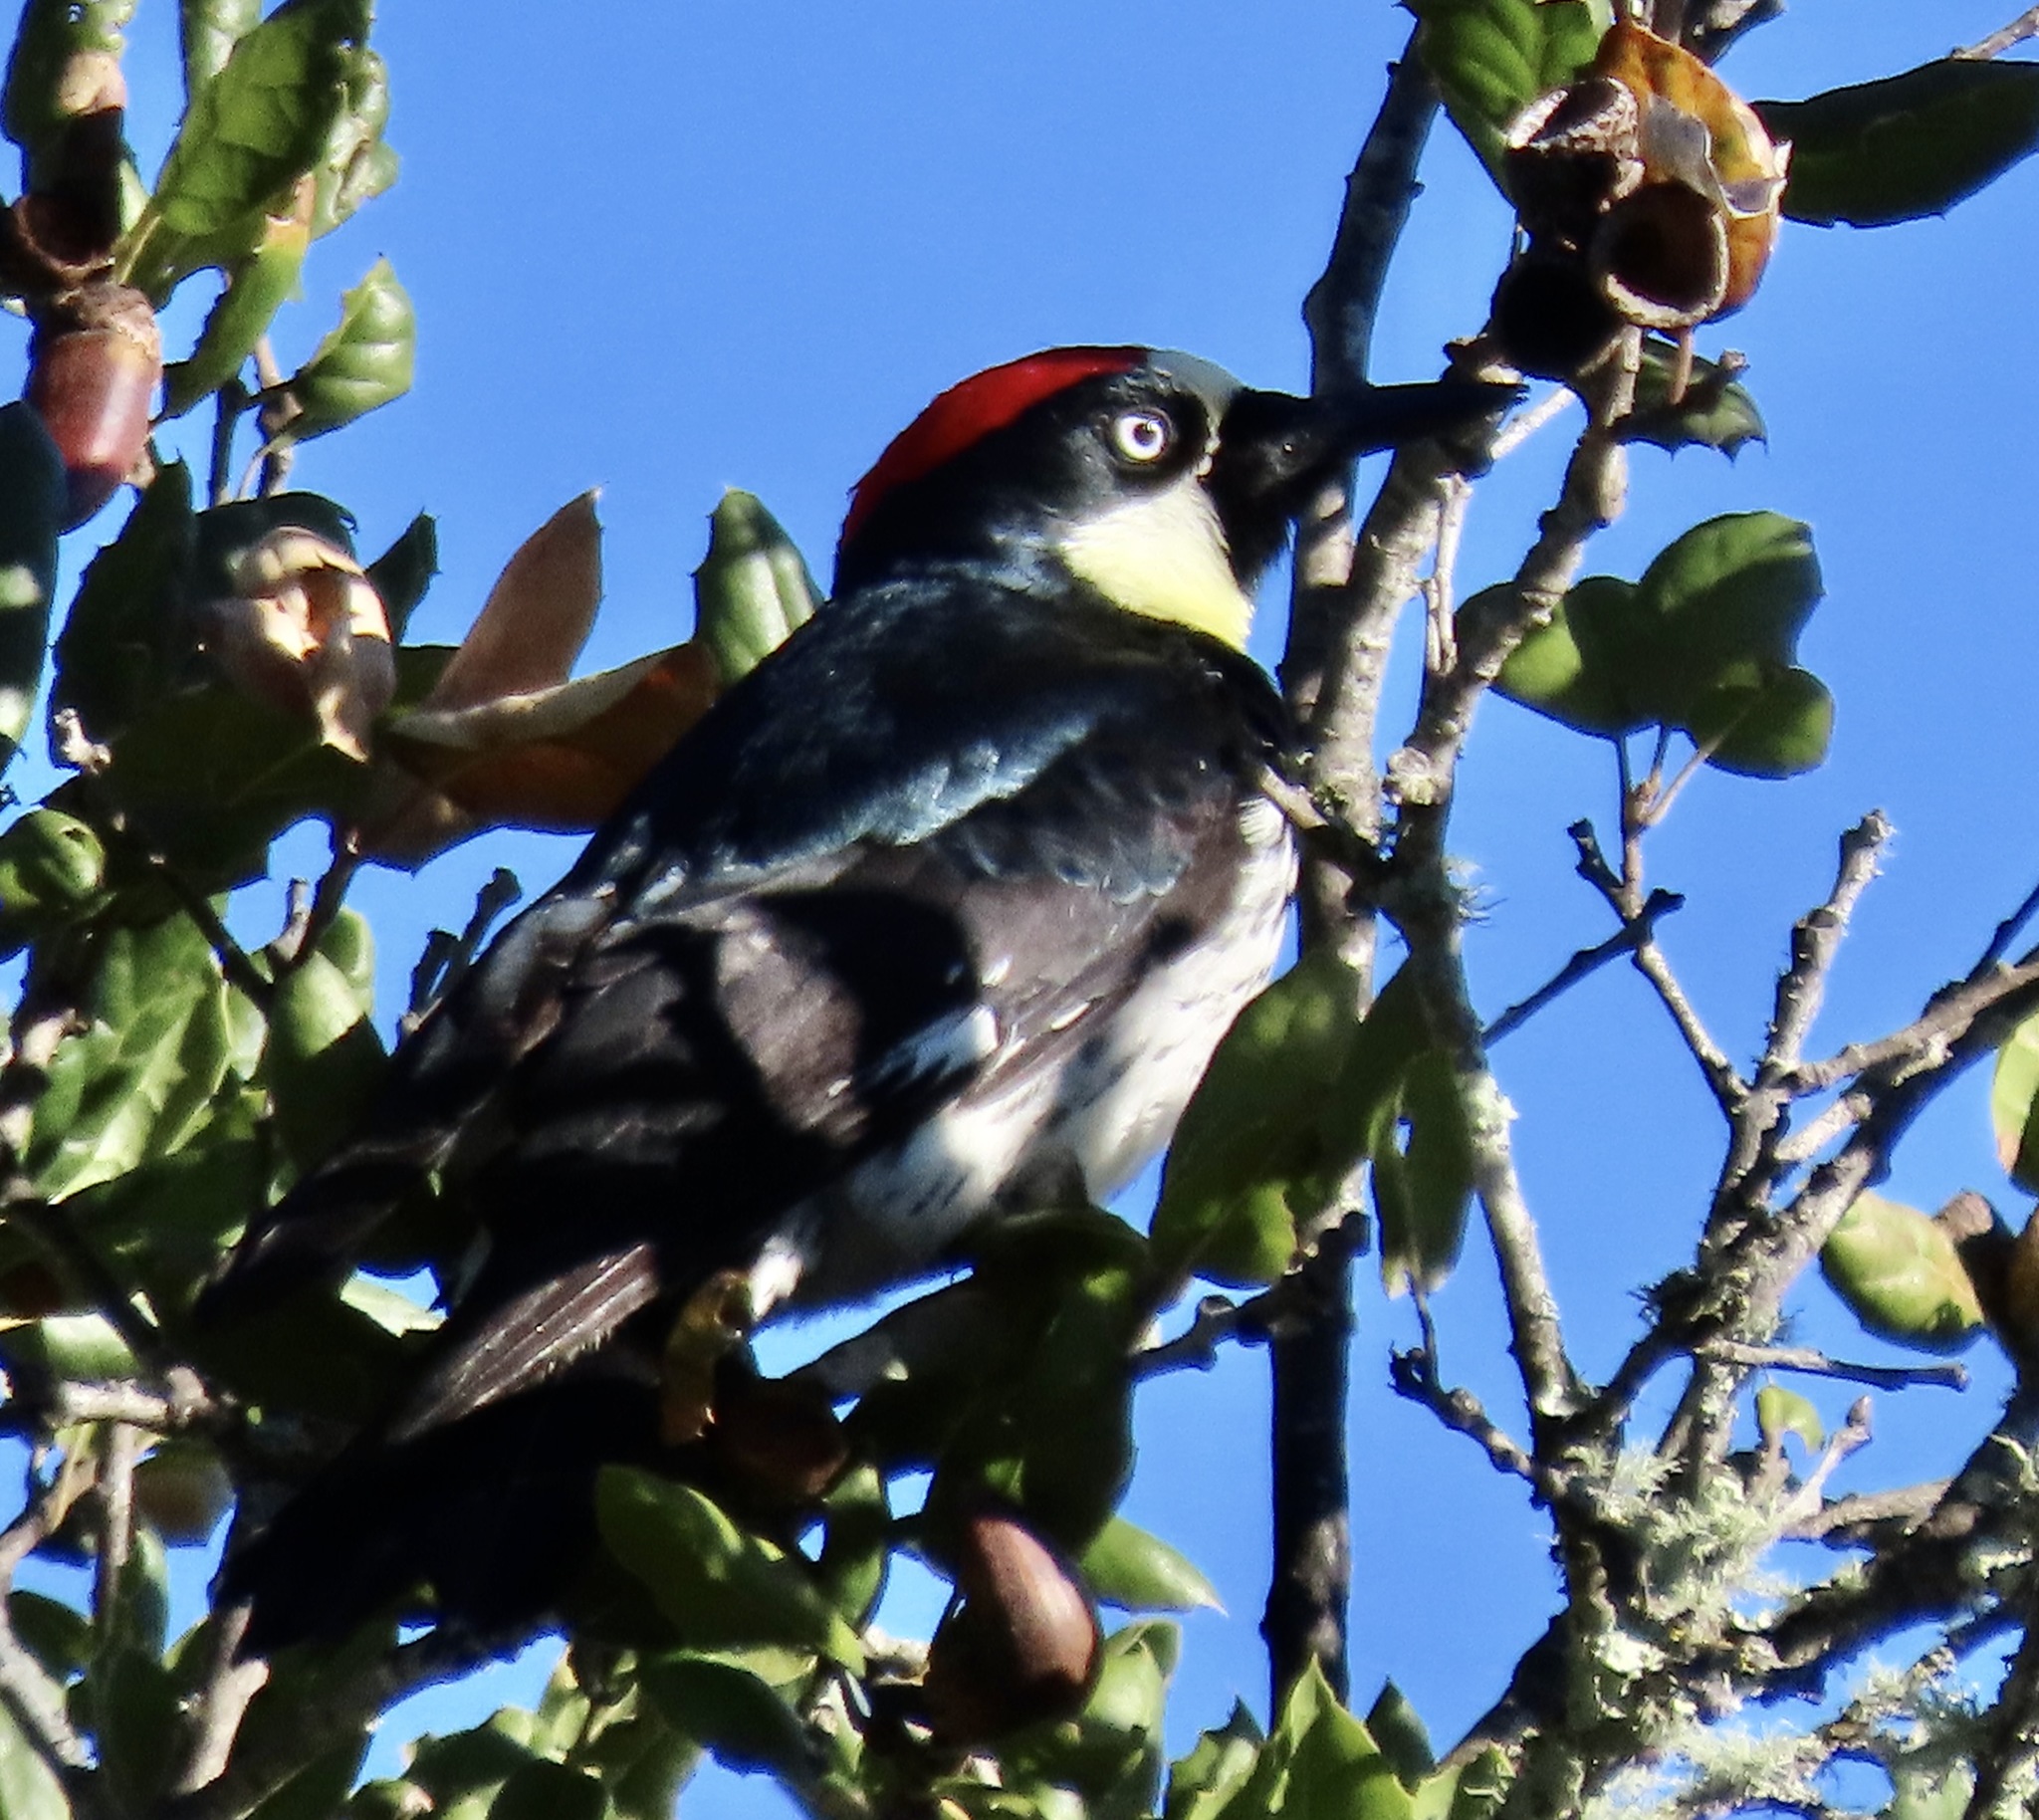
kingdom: Animalia
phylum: Chordata
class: Aves
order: Piciformes
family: Picidae
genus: Melanerpes
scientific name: Melanerpes formicivorus
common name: Acorn woodpecker
